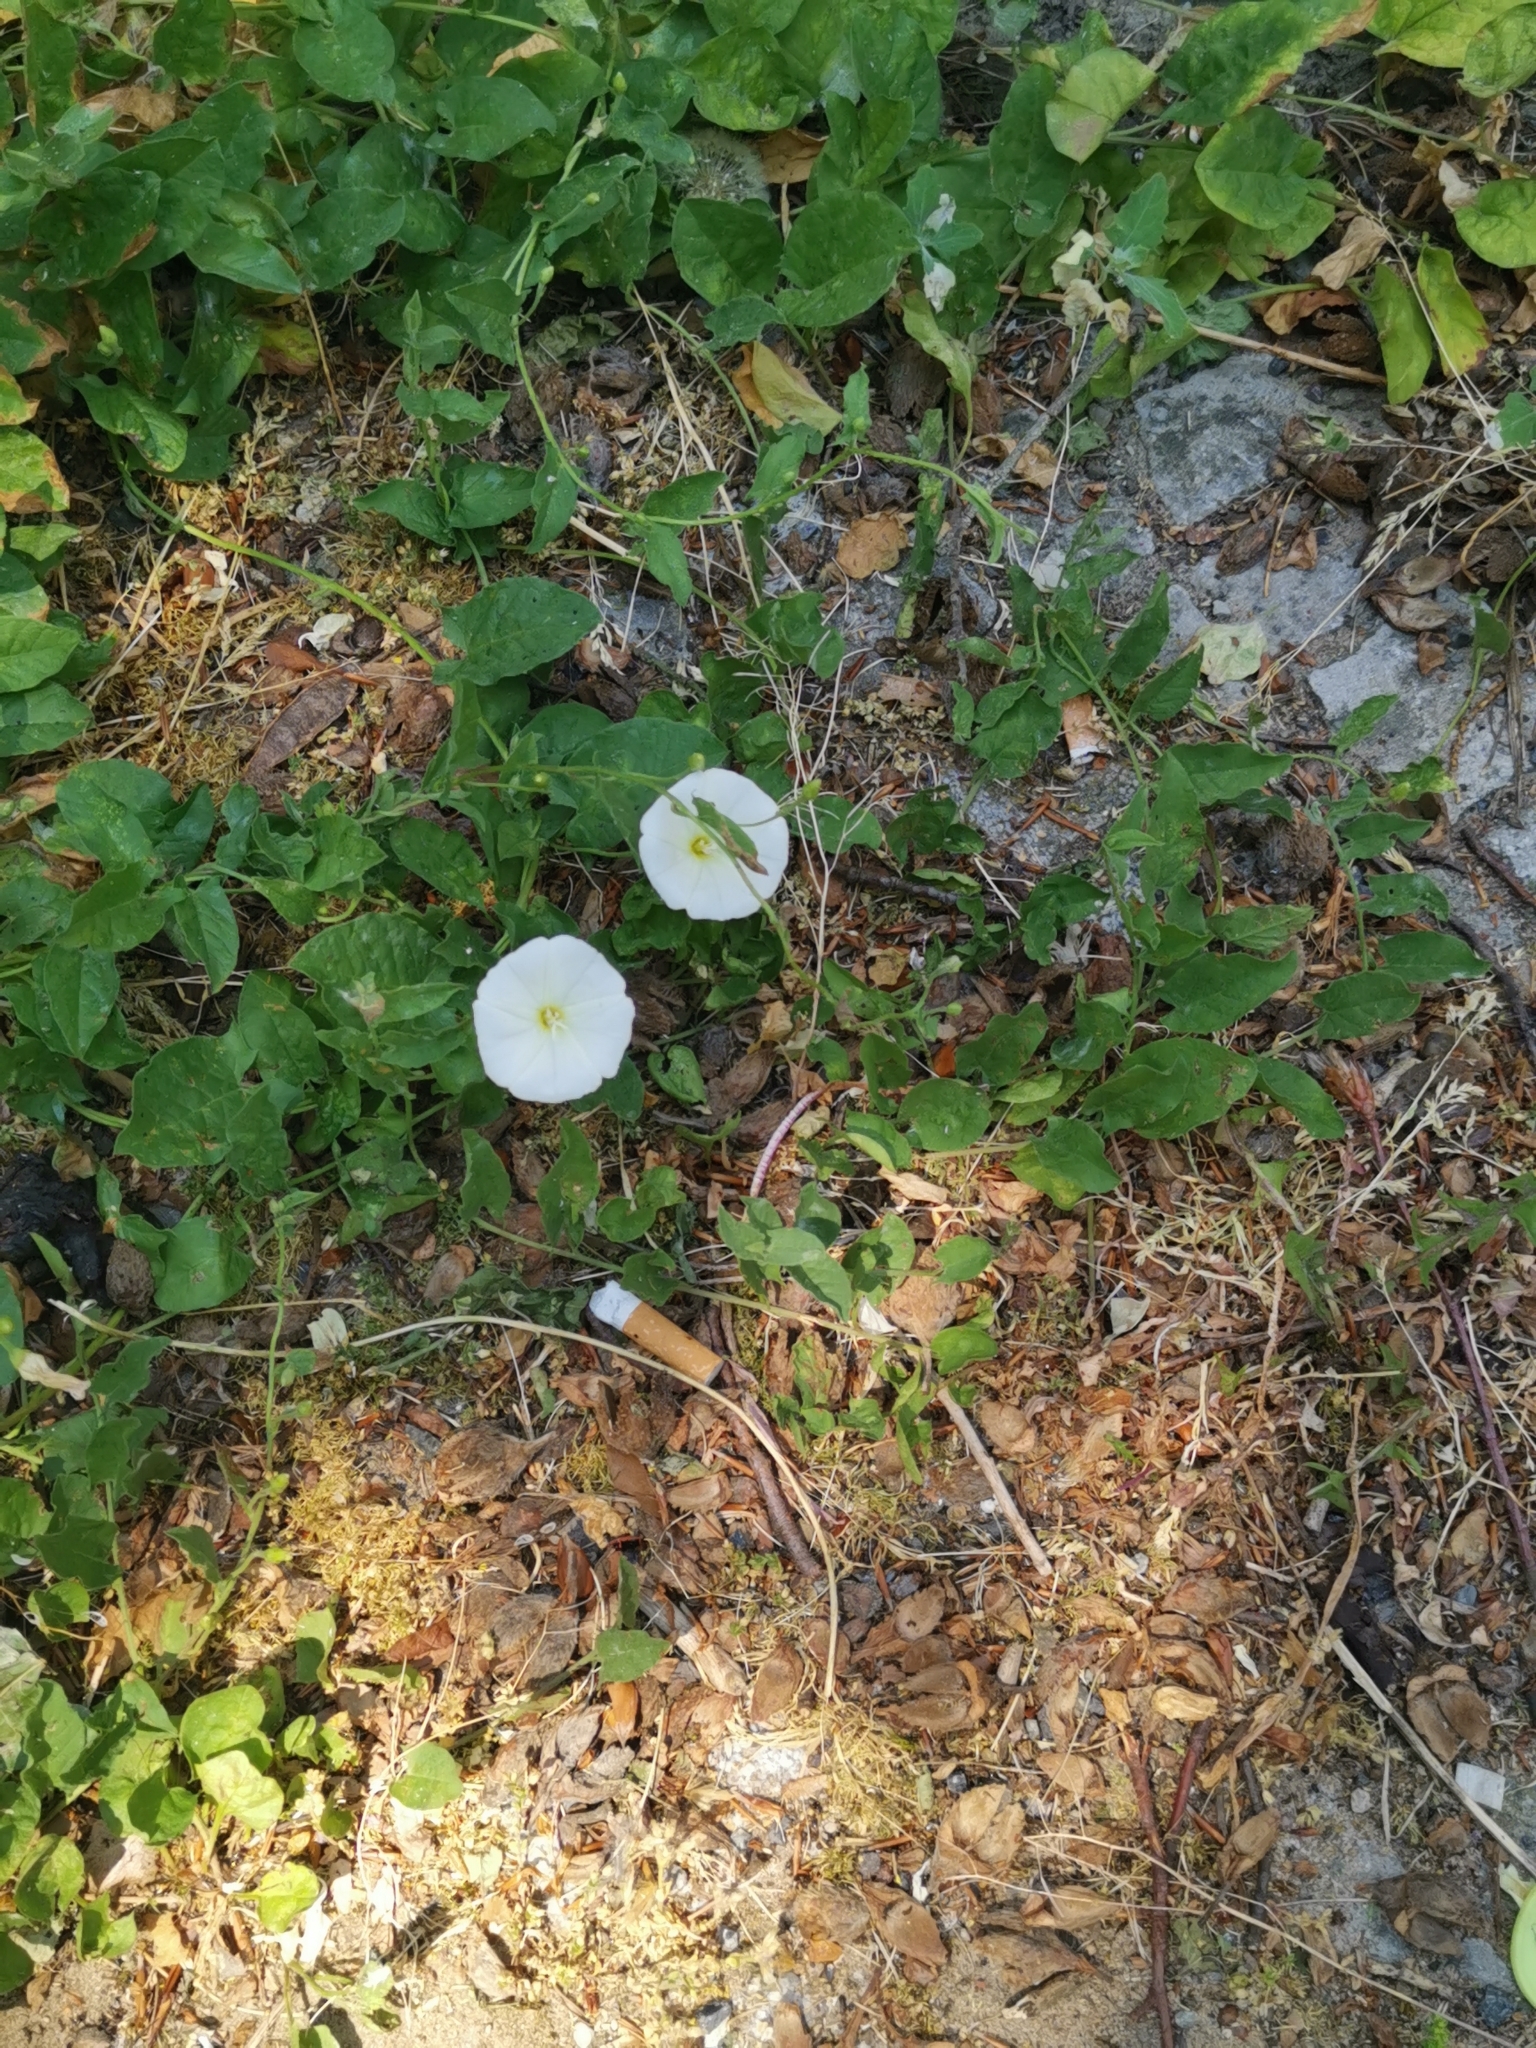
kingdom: Plantae
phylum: Tracheophyta
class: Magnoliopsida
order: Solanales
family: Convolvulaceae
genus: Convolvulus
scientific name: Convolvulus arvensis
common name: Field bindweed
